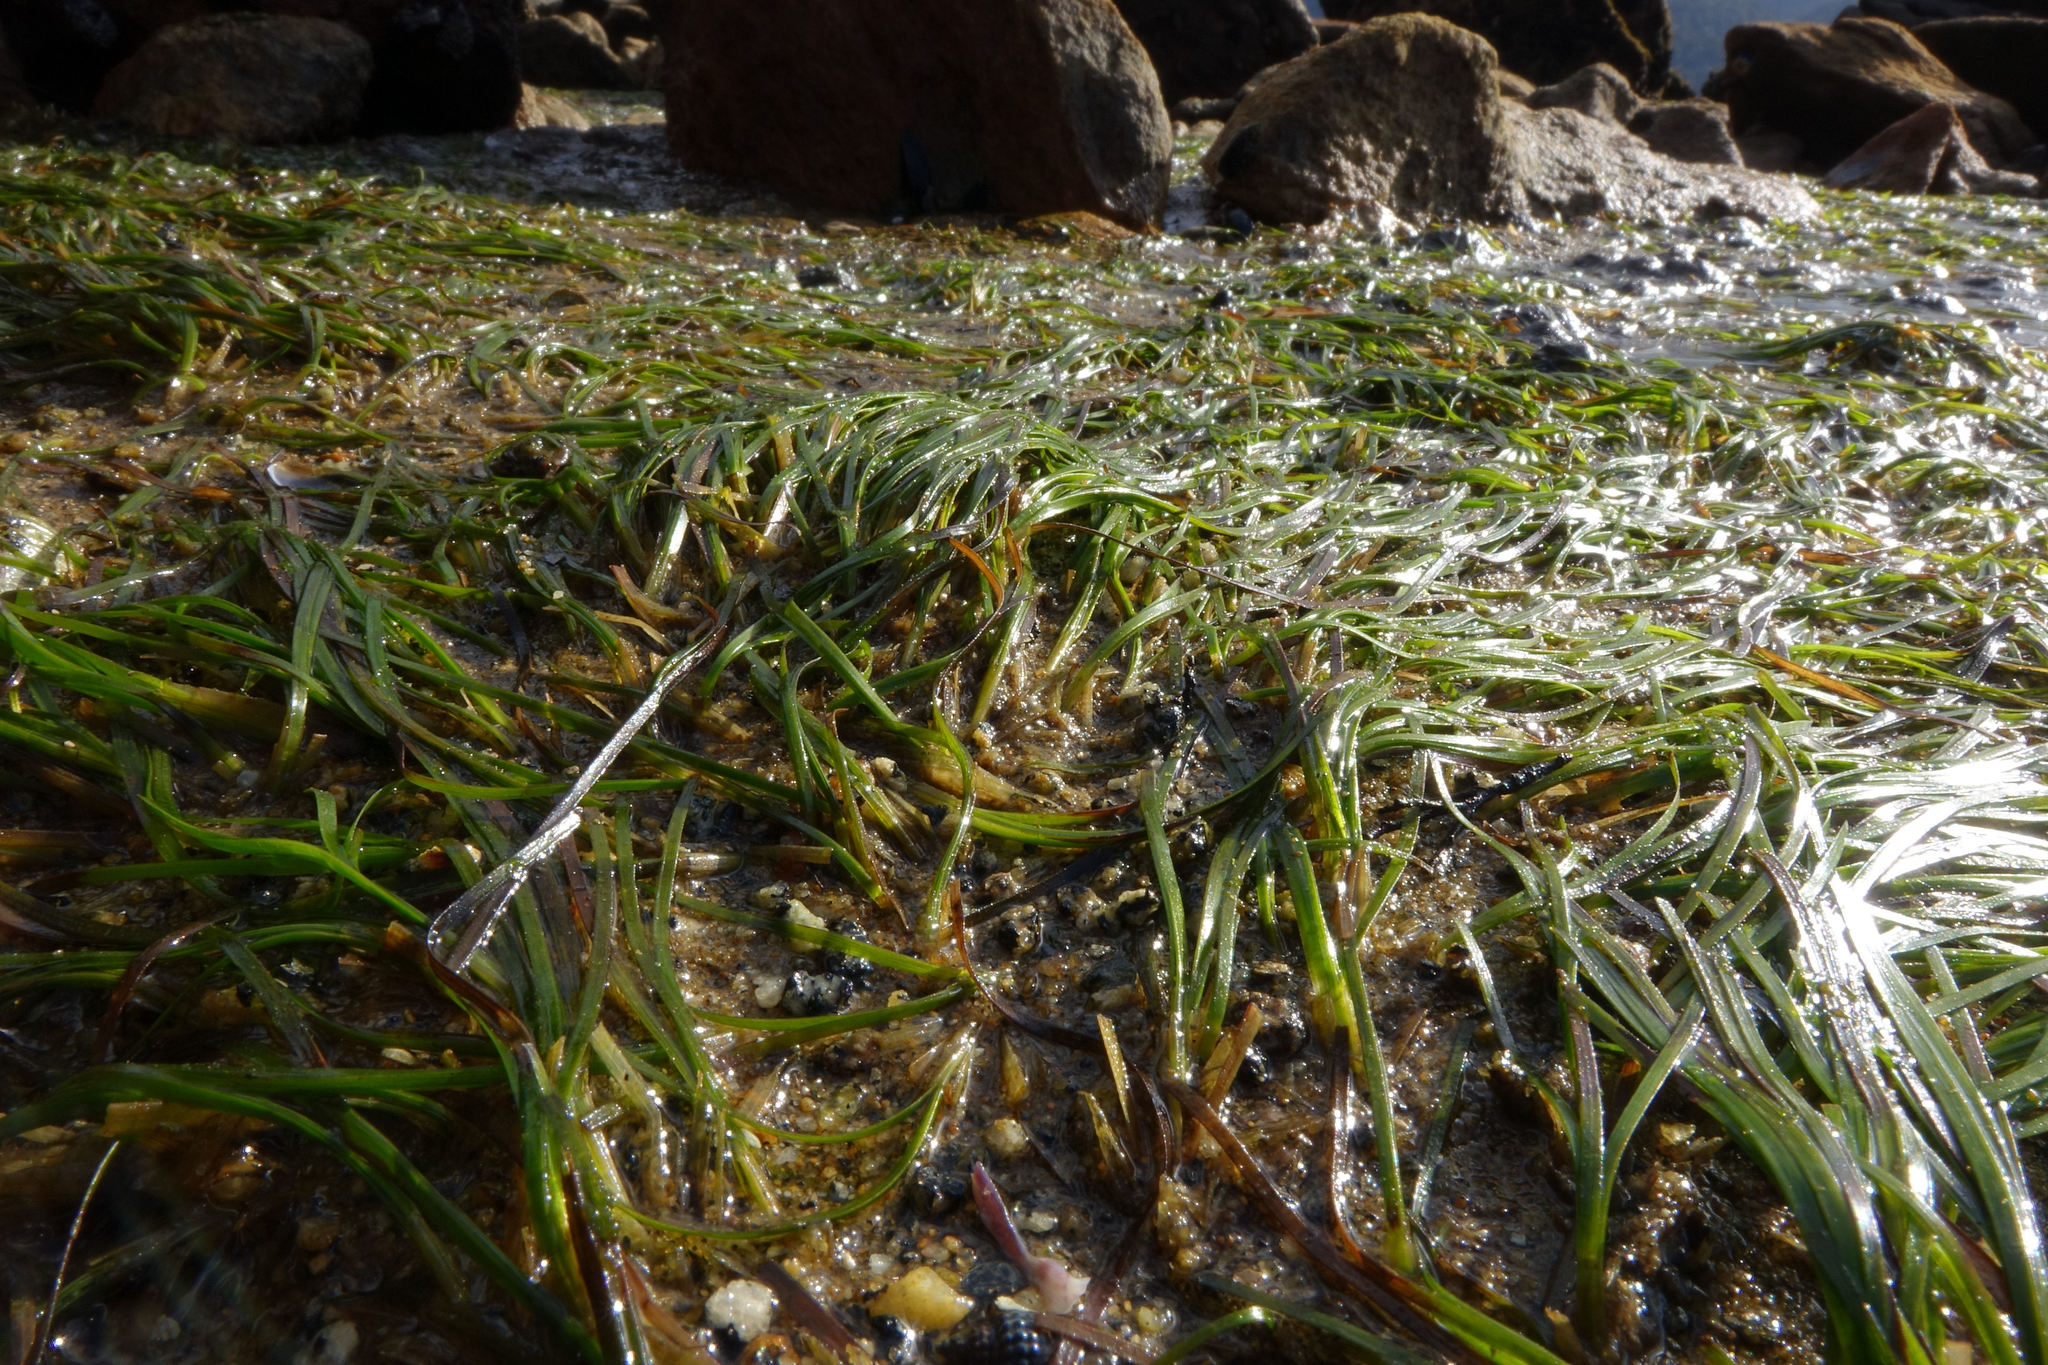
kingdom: Plantae
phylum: Tracheophyta
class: Liliopsida
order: Alismatales
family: Zosteraceae
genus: Zostera
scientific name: Zostera novazelandica
